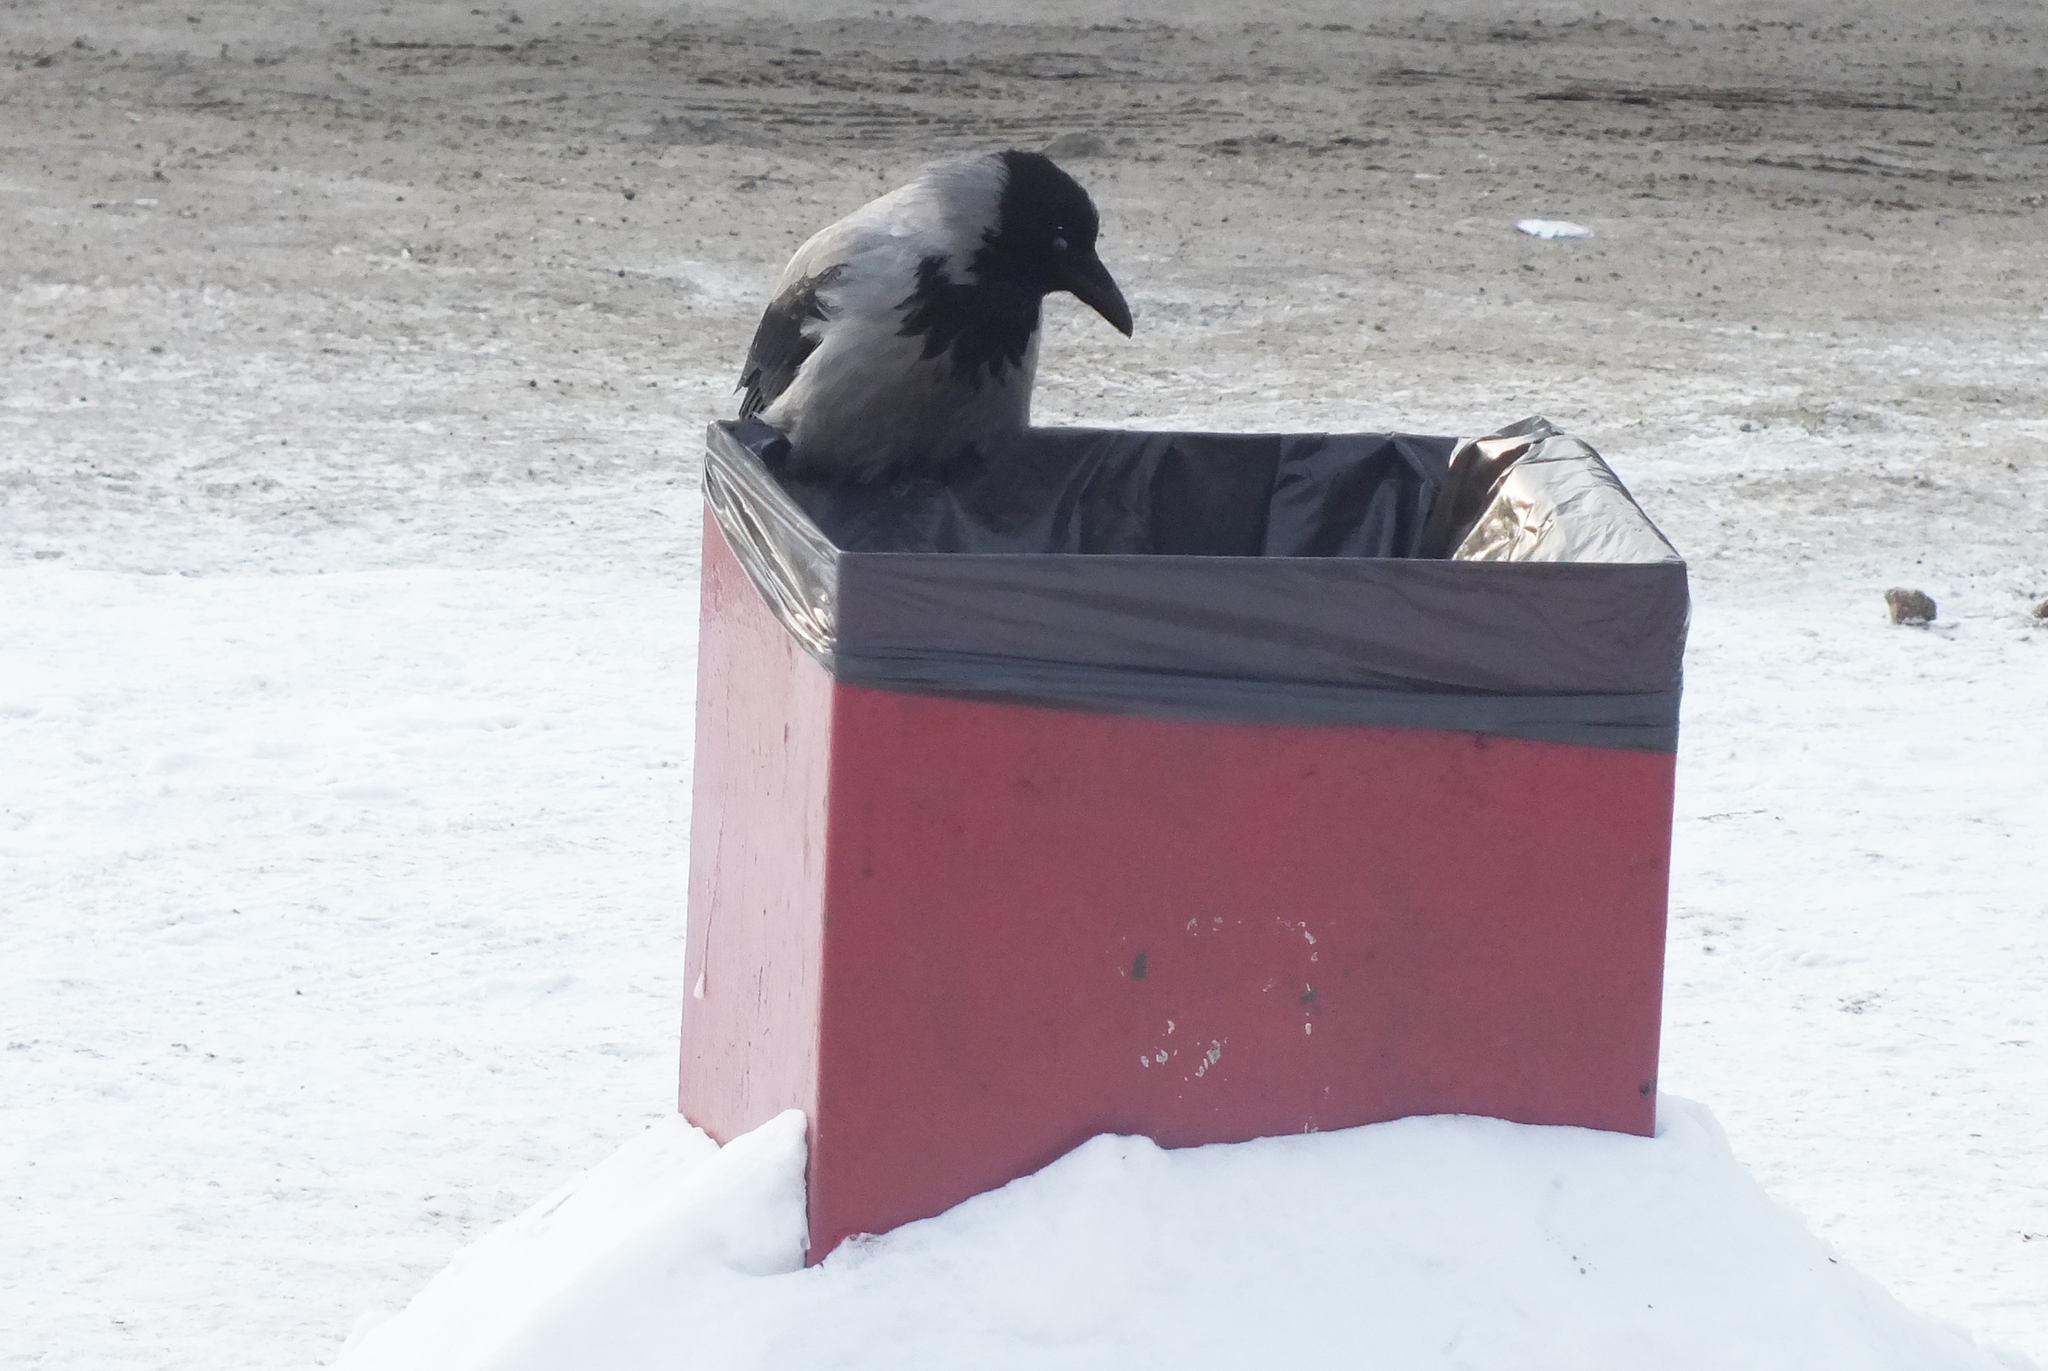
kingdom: Animalia
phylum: Chordata
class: Aves
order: Passeriformes
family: Corvidae
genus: Corvus
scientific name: Corvus cornix
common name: Hooded crow
